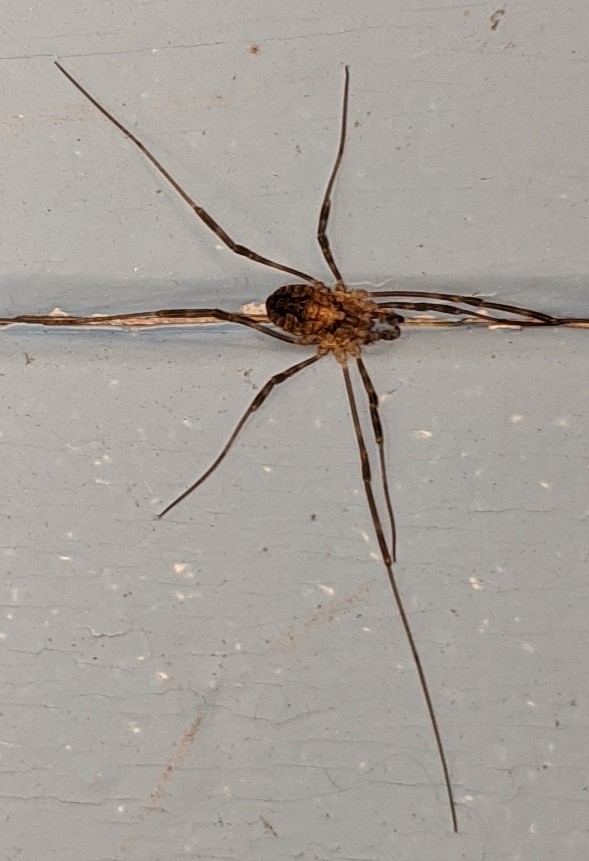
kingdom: Animalia
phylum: Arthropoda
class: Arachnida
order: Opiliones
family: Phalangiidae
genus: Odiellus
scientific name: Odiellus pictus
